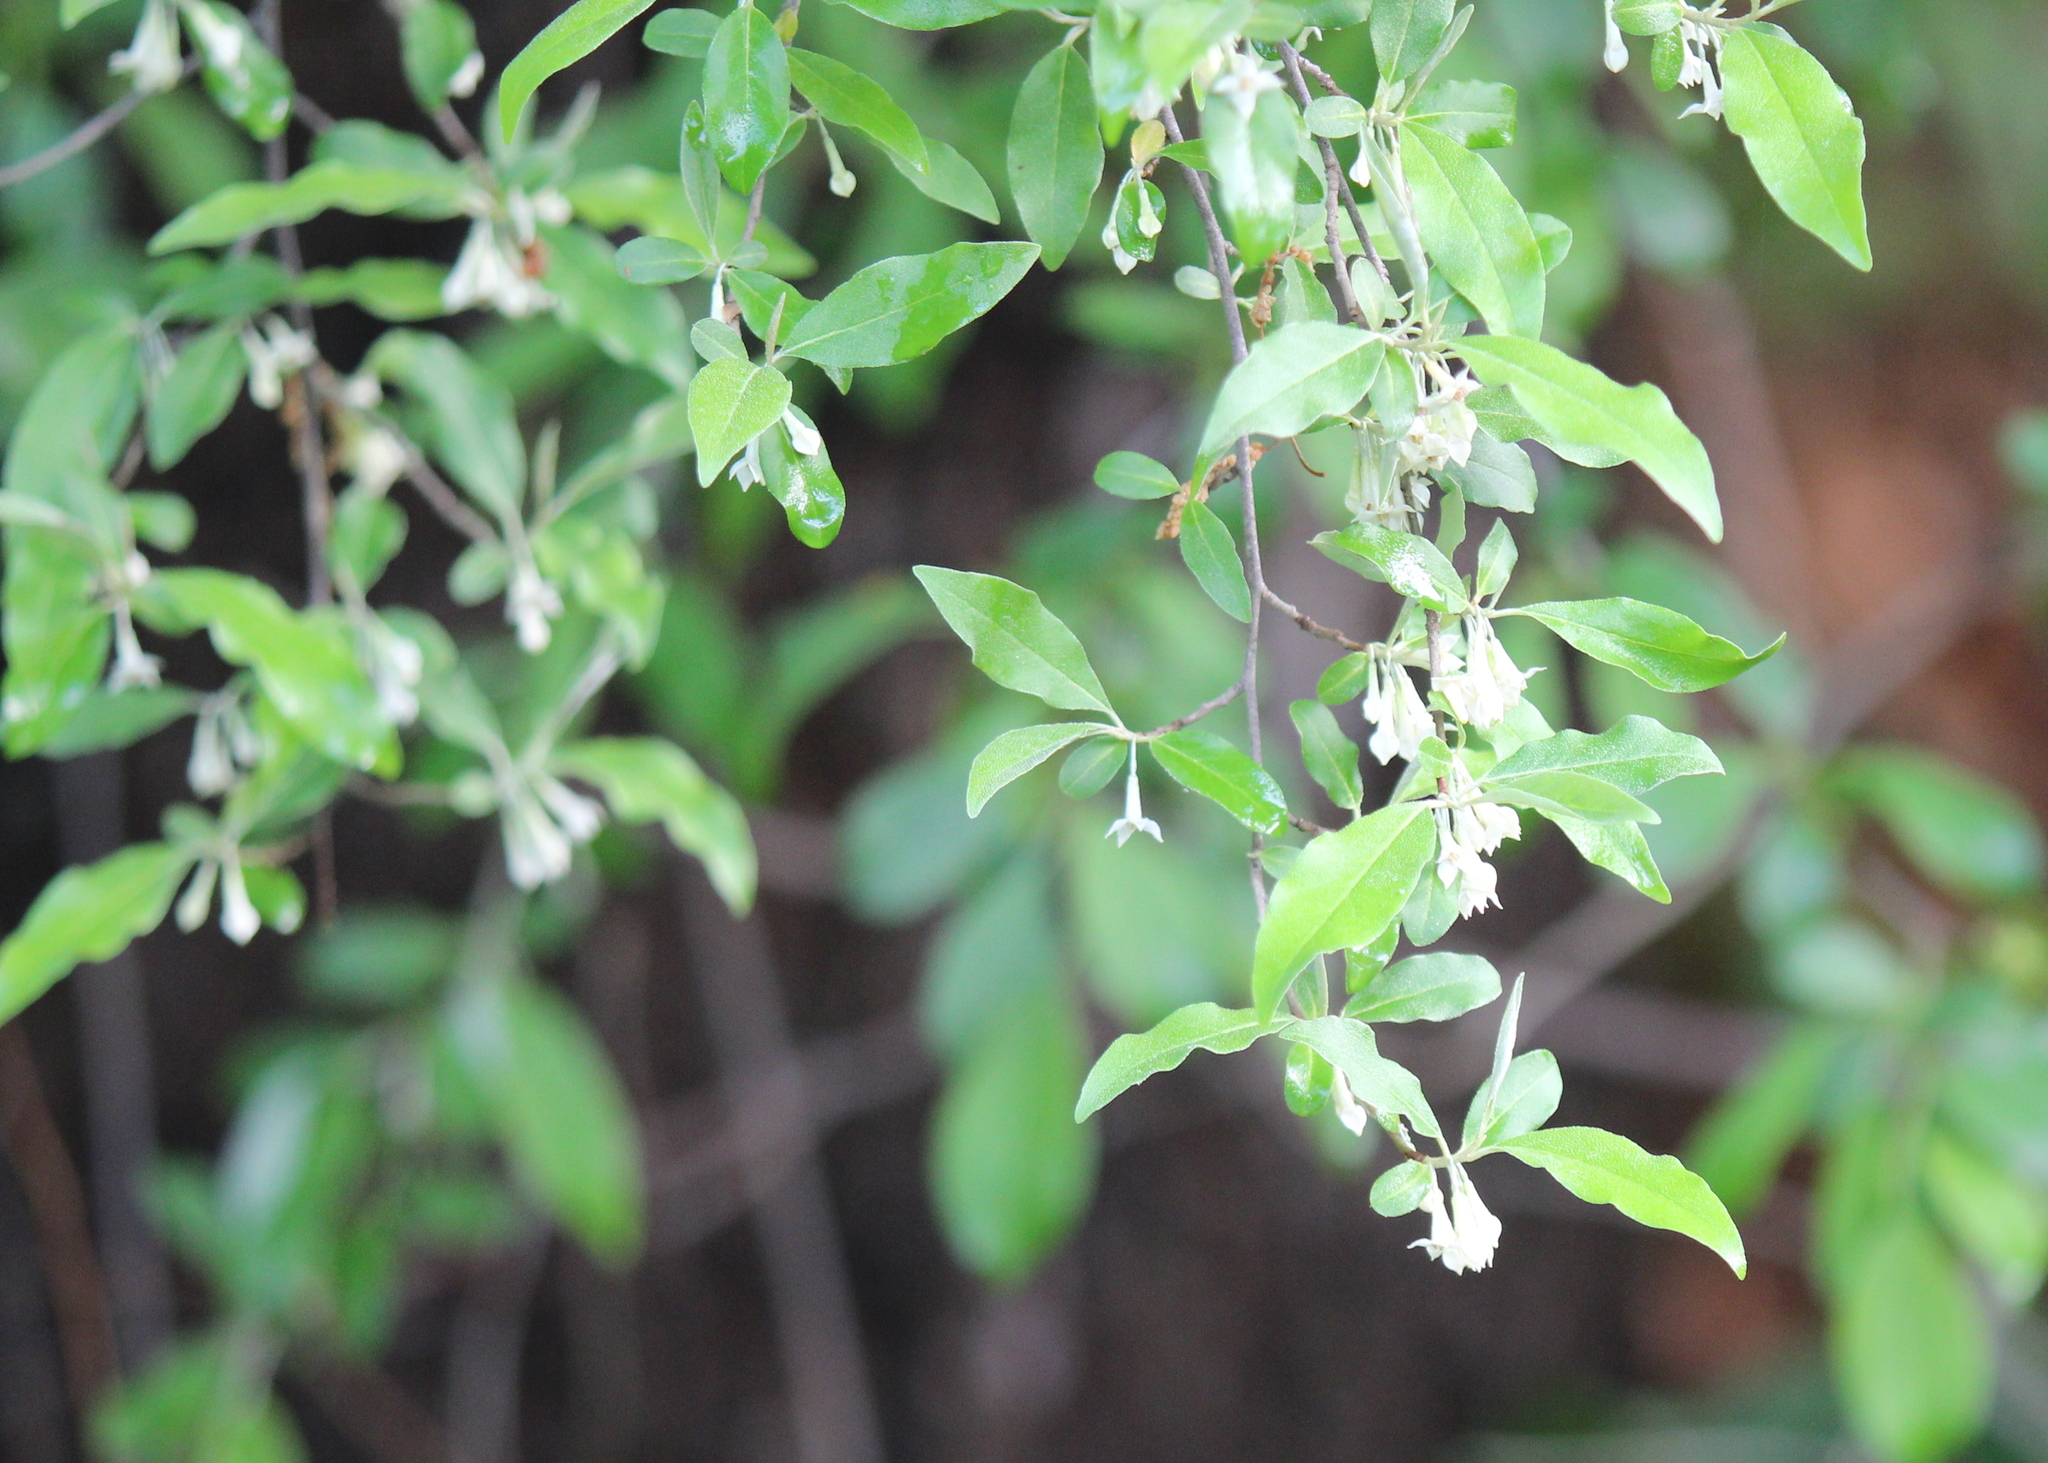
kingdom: Plantae
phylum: Tracheophyta
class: Magnoliopsida
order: Rosales
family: Elaeagnaceae
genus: Elaeagnus
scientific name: Elaeagnus umbellata
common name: Autumn olive
